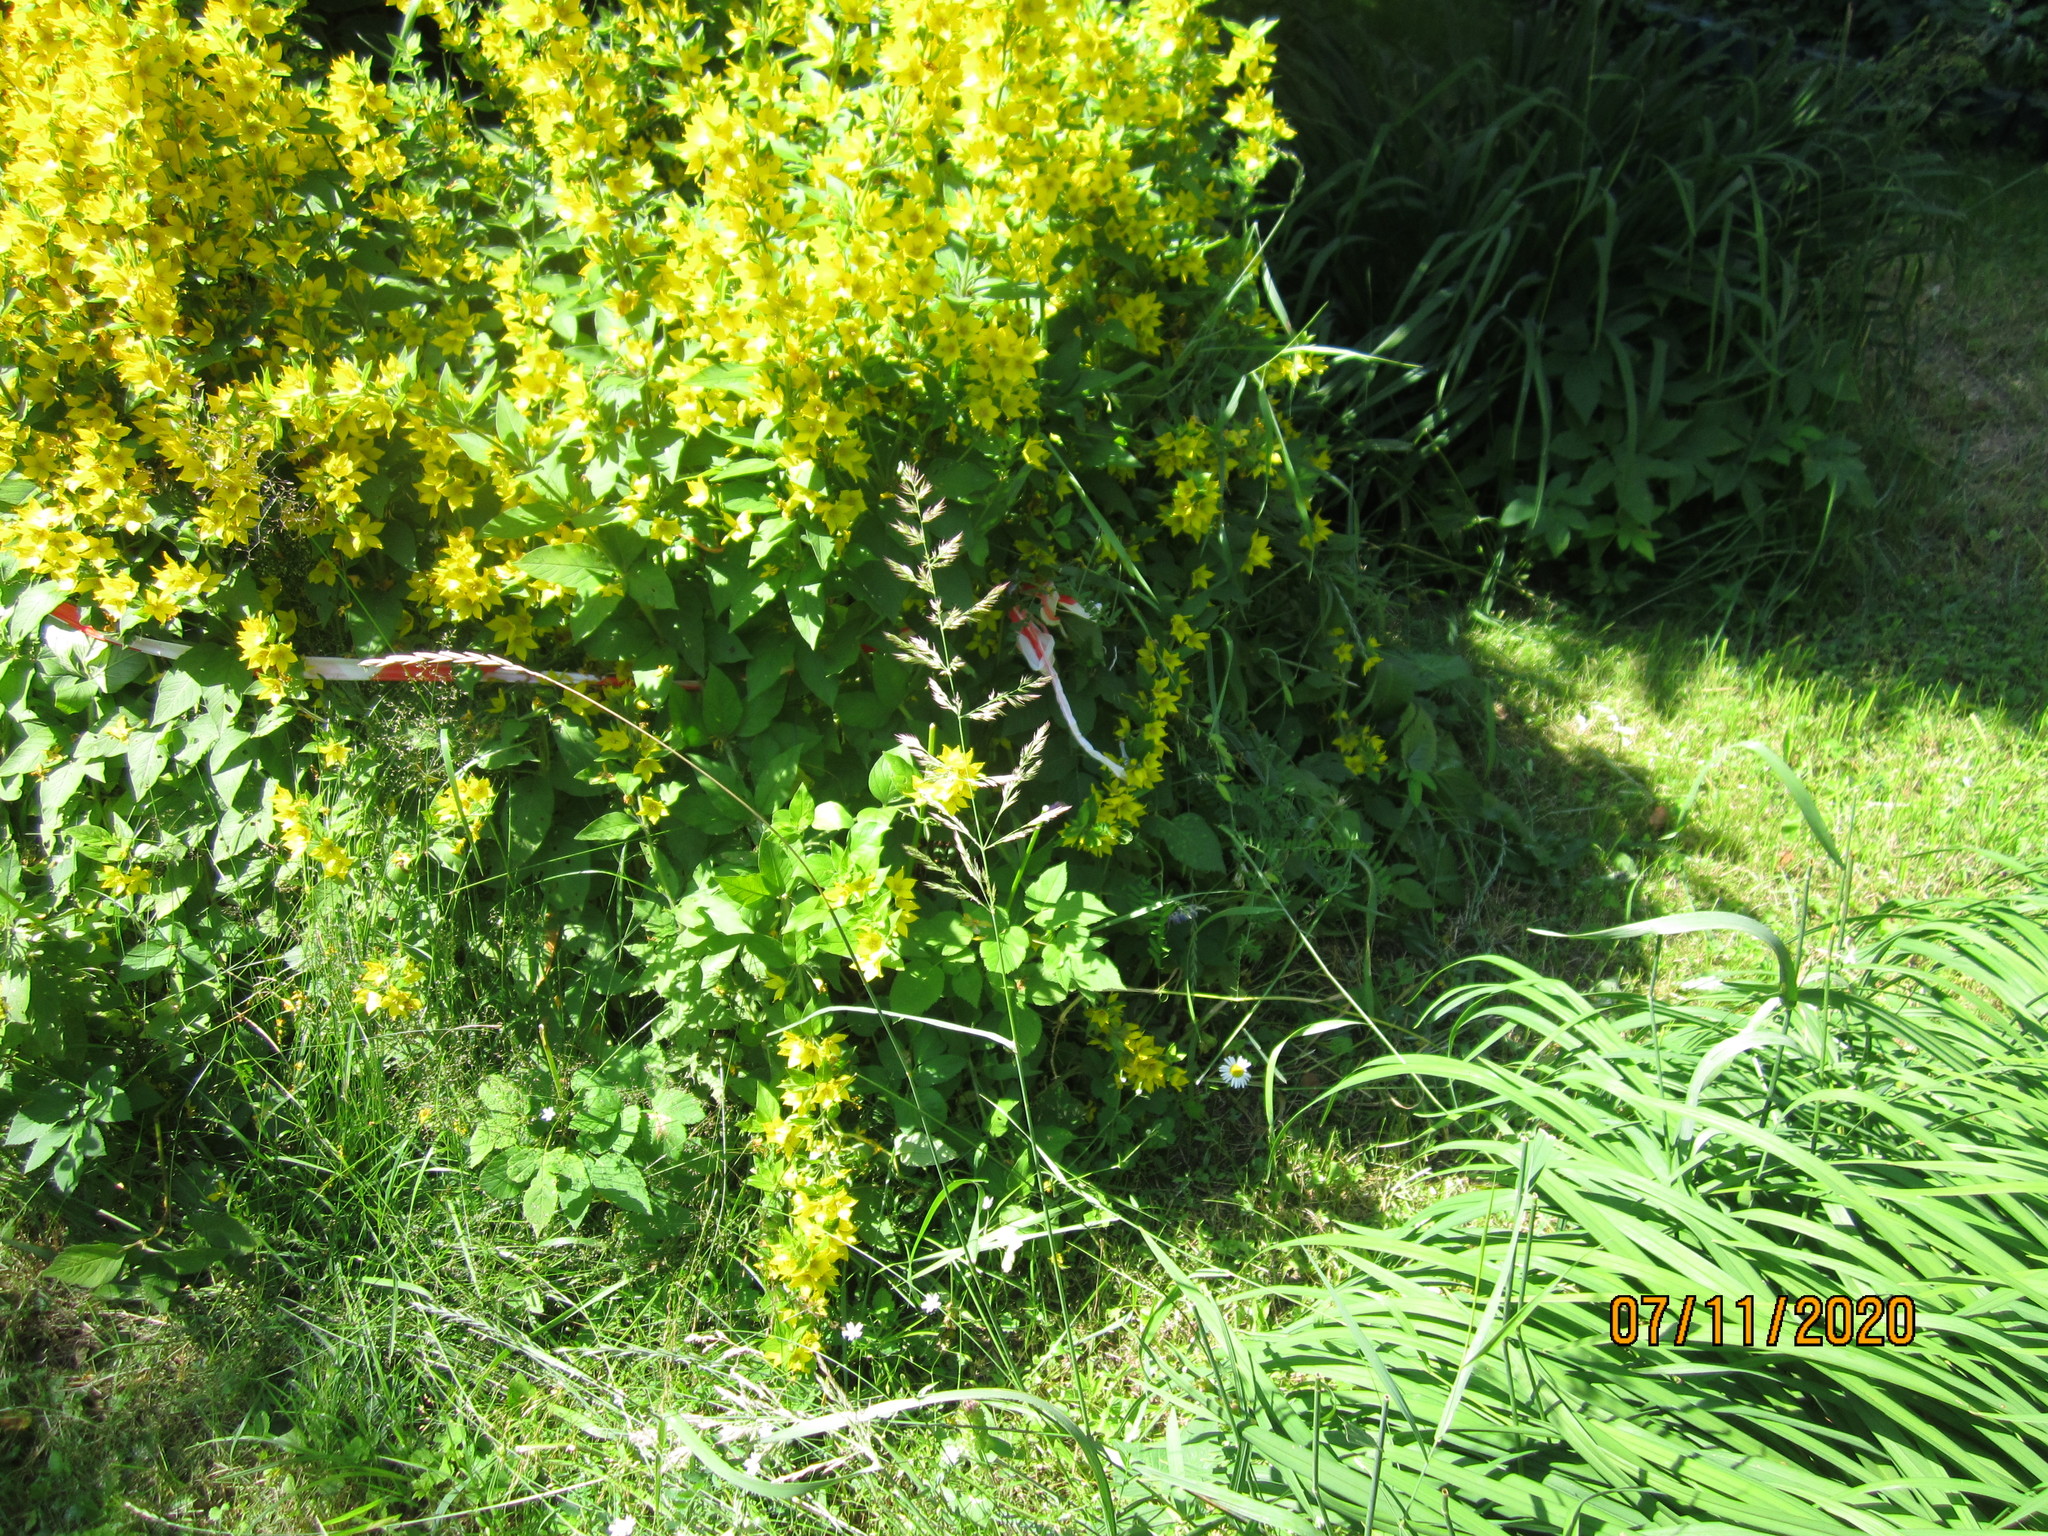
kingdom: Plantae
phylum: Tracheophyta
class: Liliopsida
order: Poales
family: Poaceae
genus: Calamagrostis
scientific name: Calamagrostis epigejos
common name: Wood small-reed
